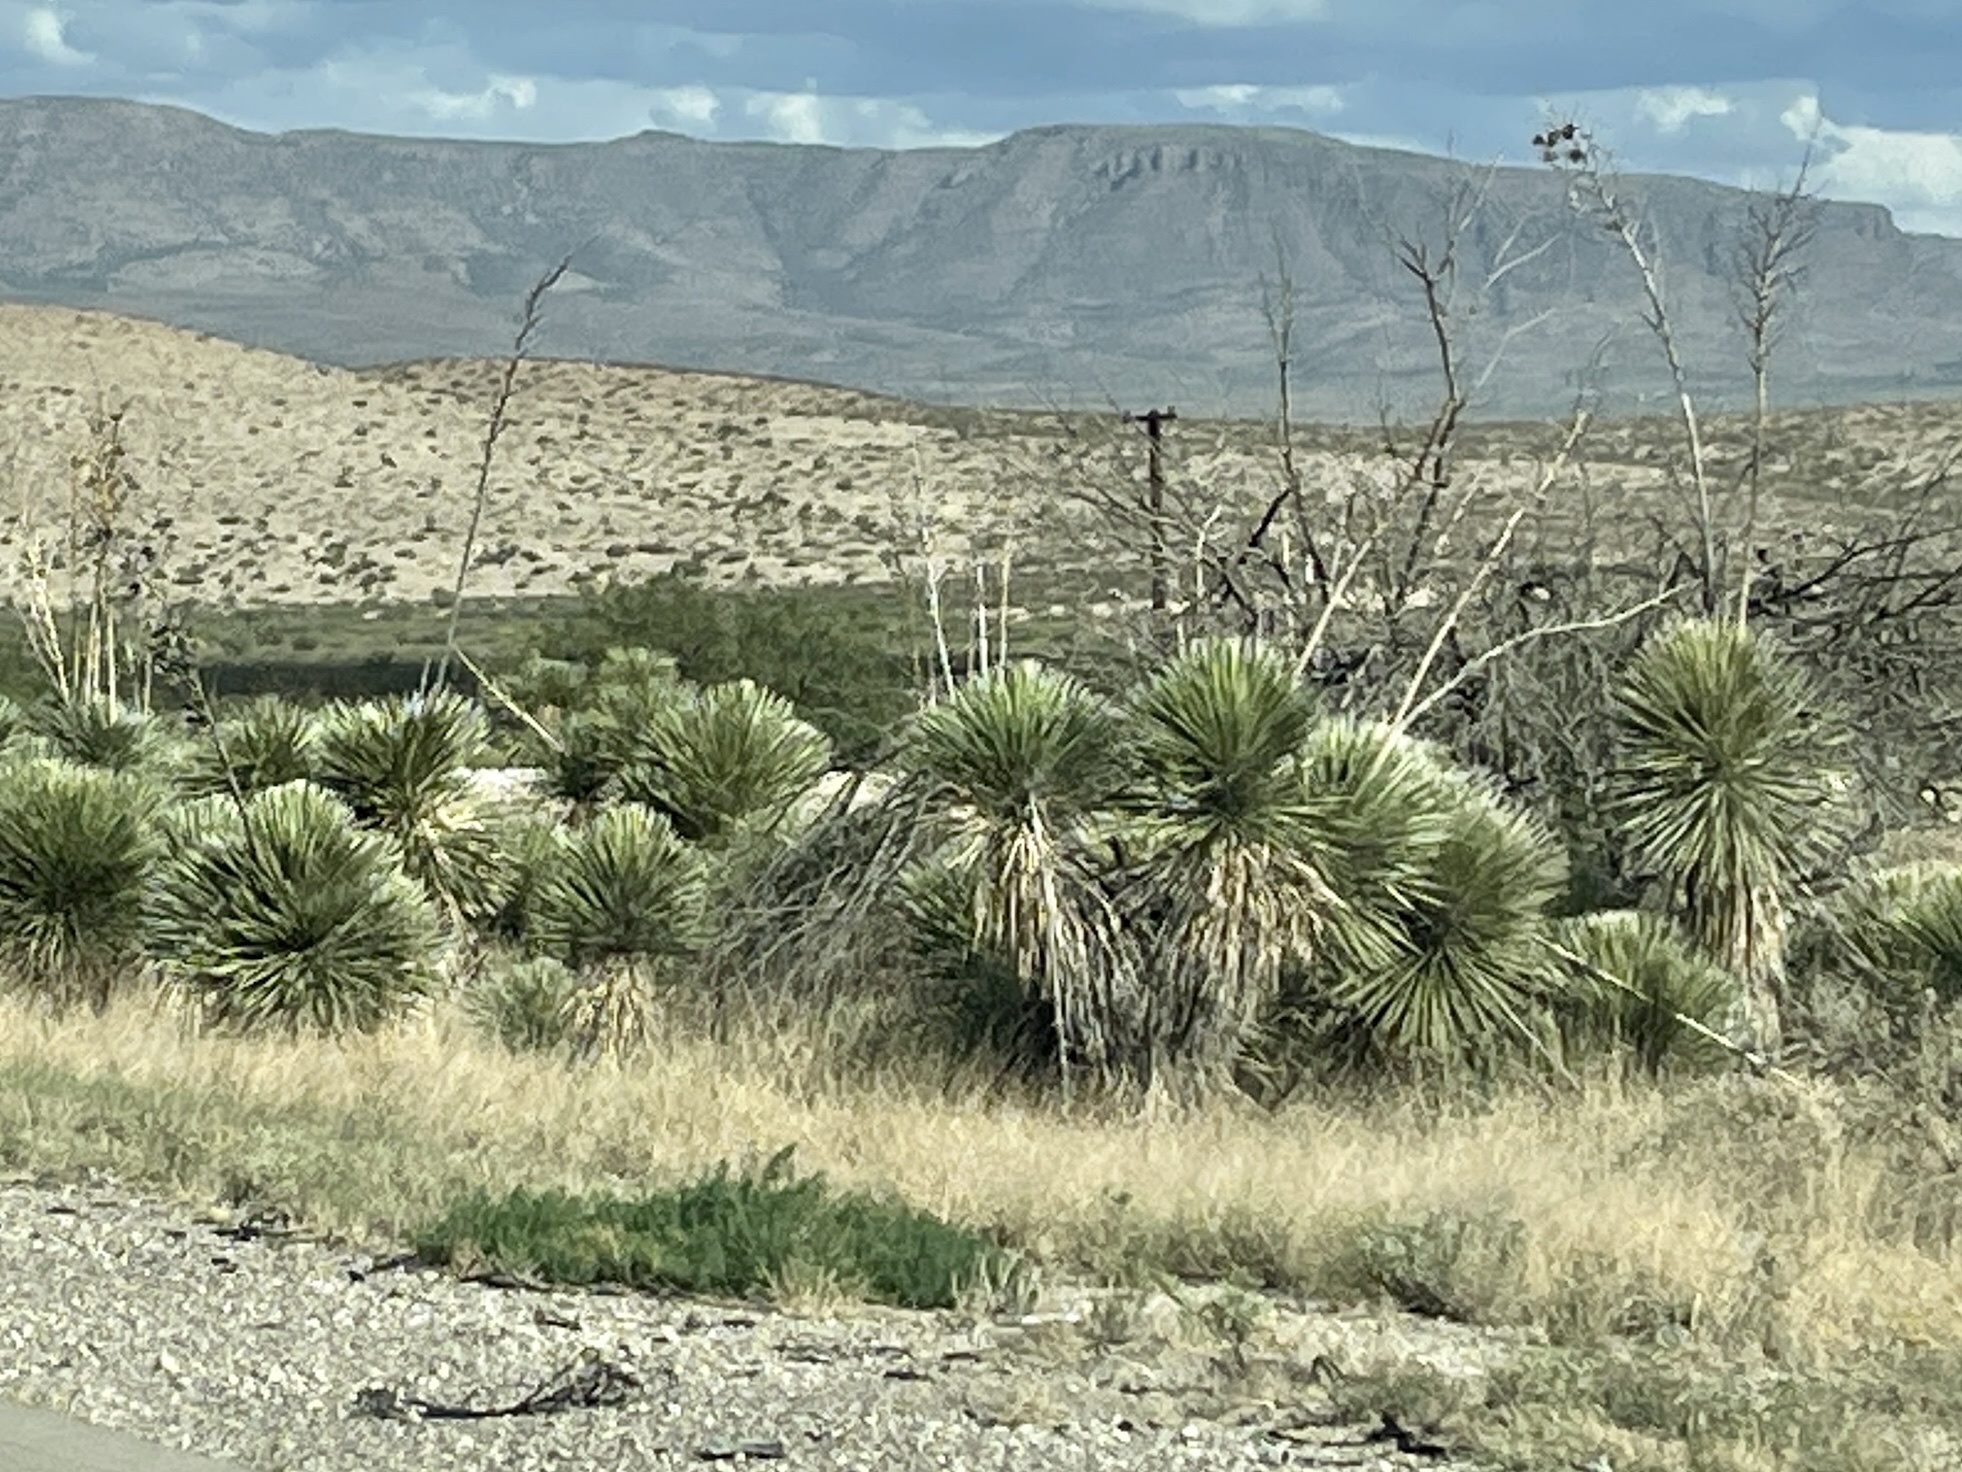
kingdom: Plantae
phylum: Tracheophyta
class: Liliopsida
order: Asparagales
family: Asparagaceae
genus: Yucca
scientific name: Yucca elata
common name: Palmella
